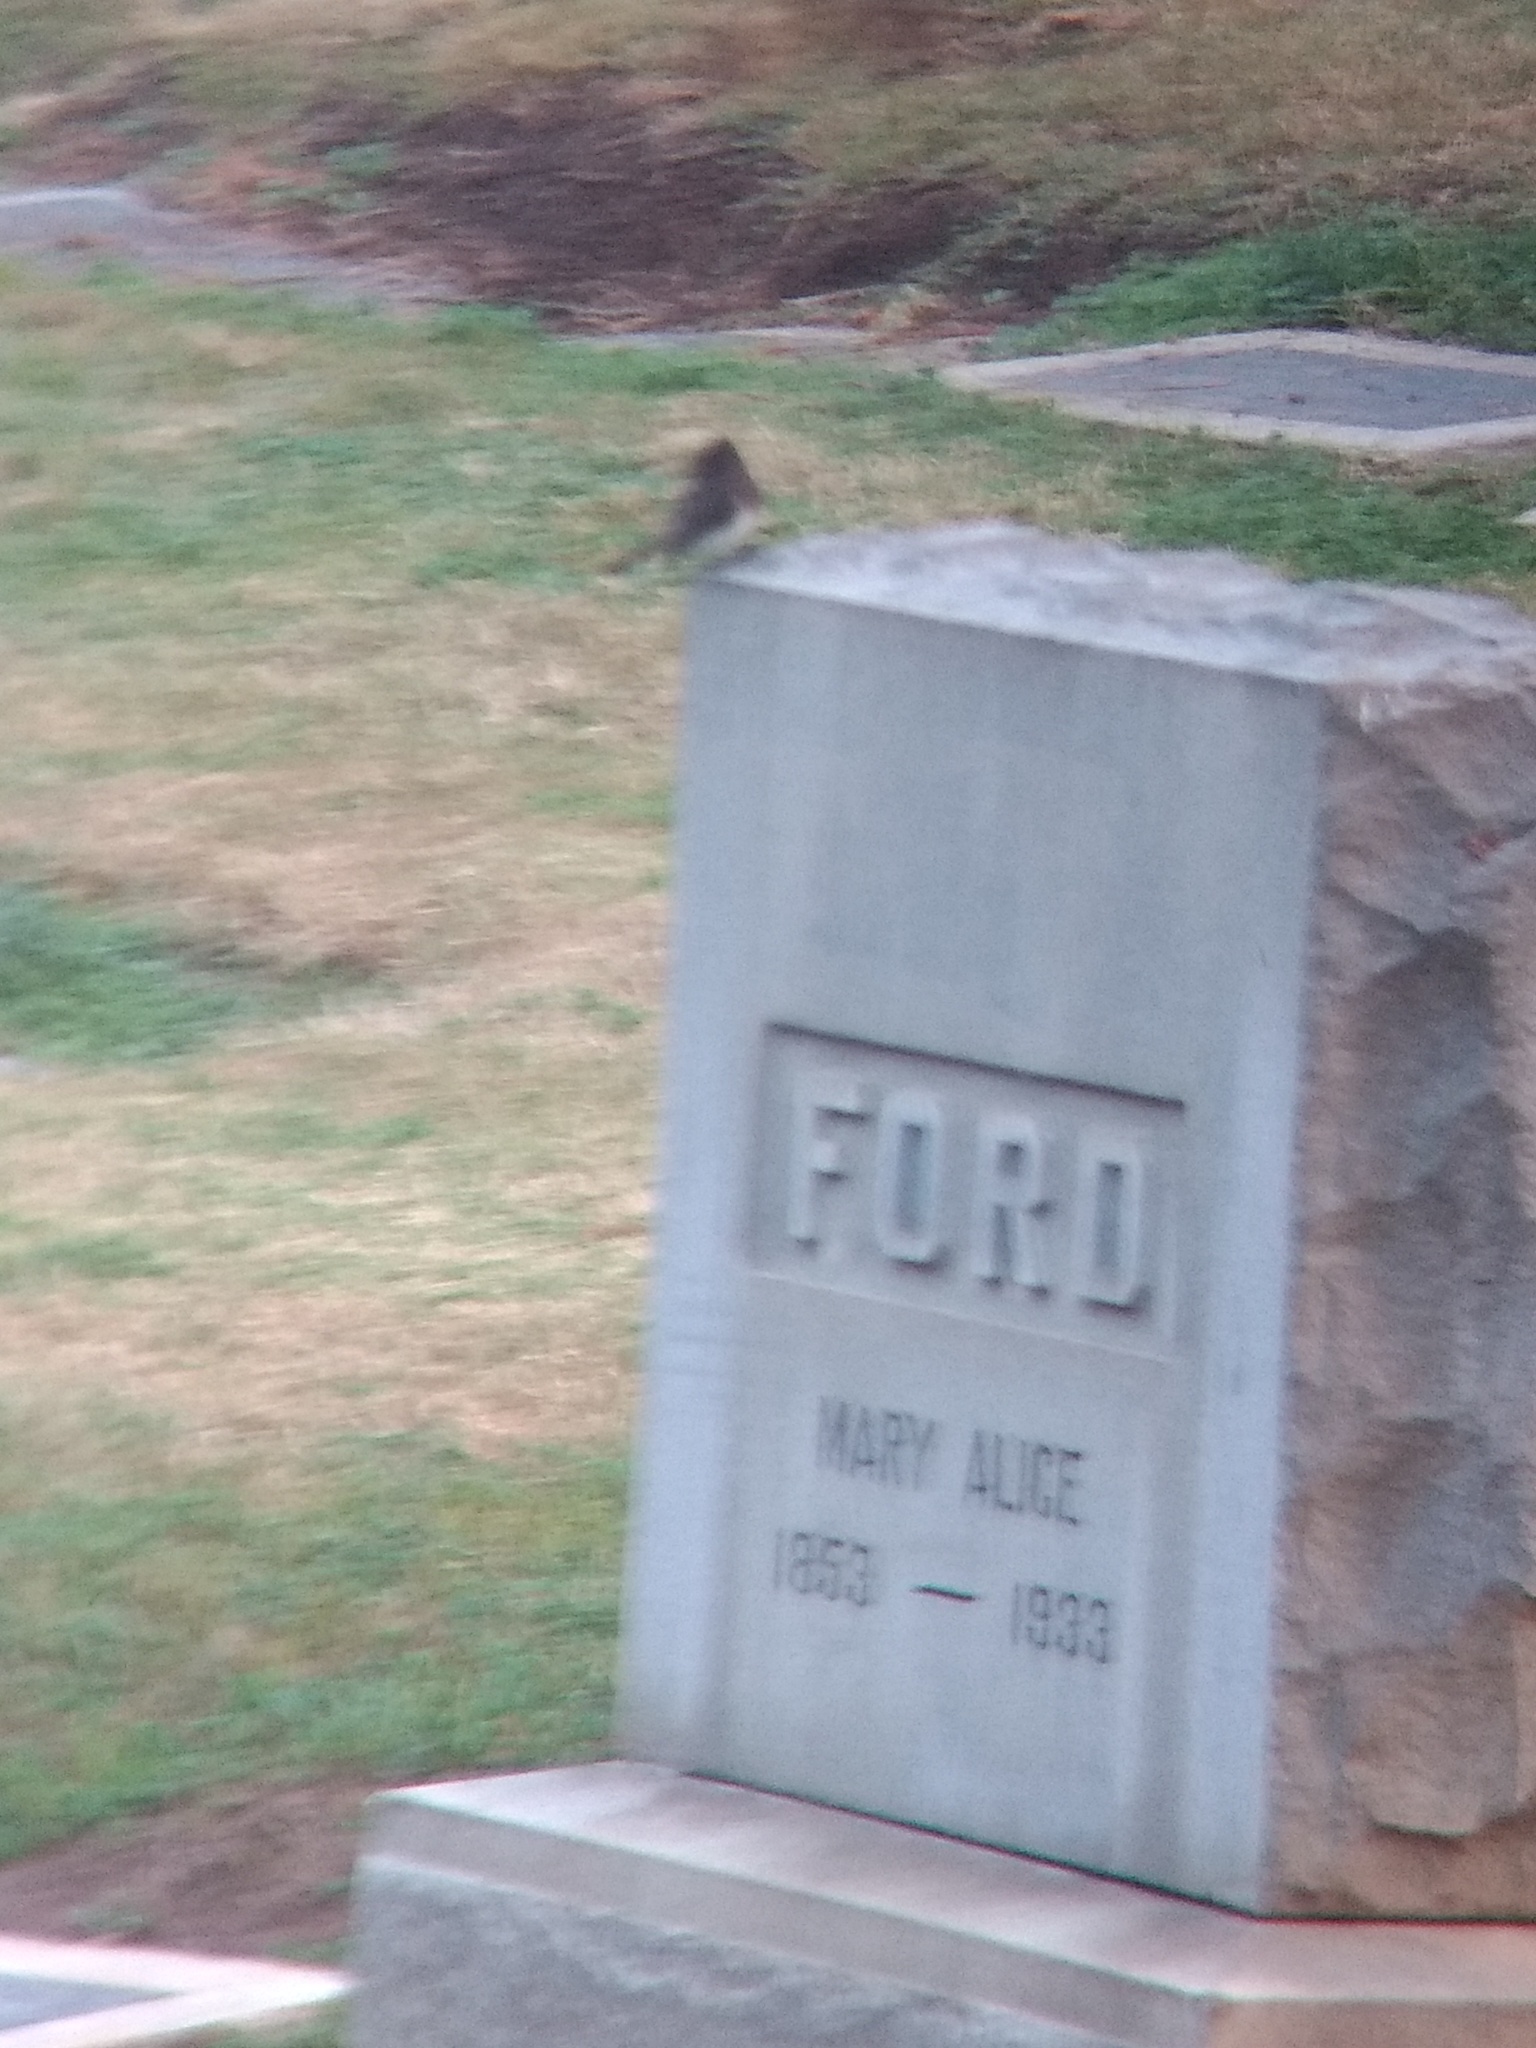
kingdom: Animalia
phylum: Chordata
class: Aves
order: Passeriformes
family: Tyrannidae
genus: Sayornis
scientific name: Sayornis nigricans
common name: Black phoebe
